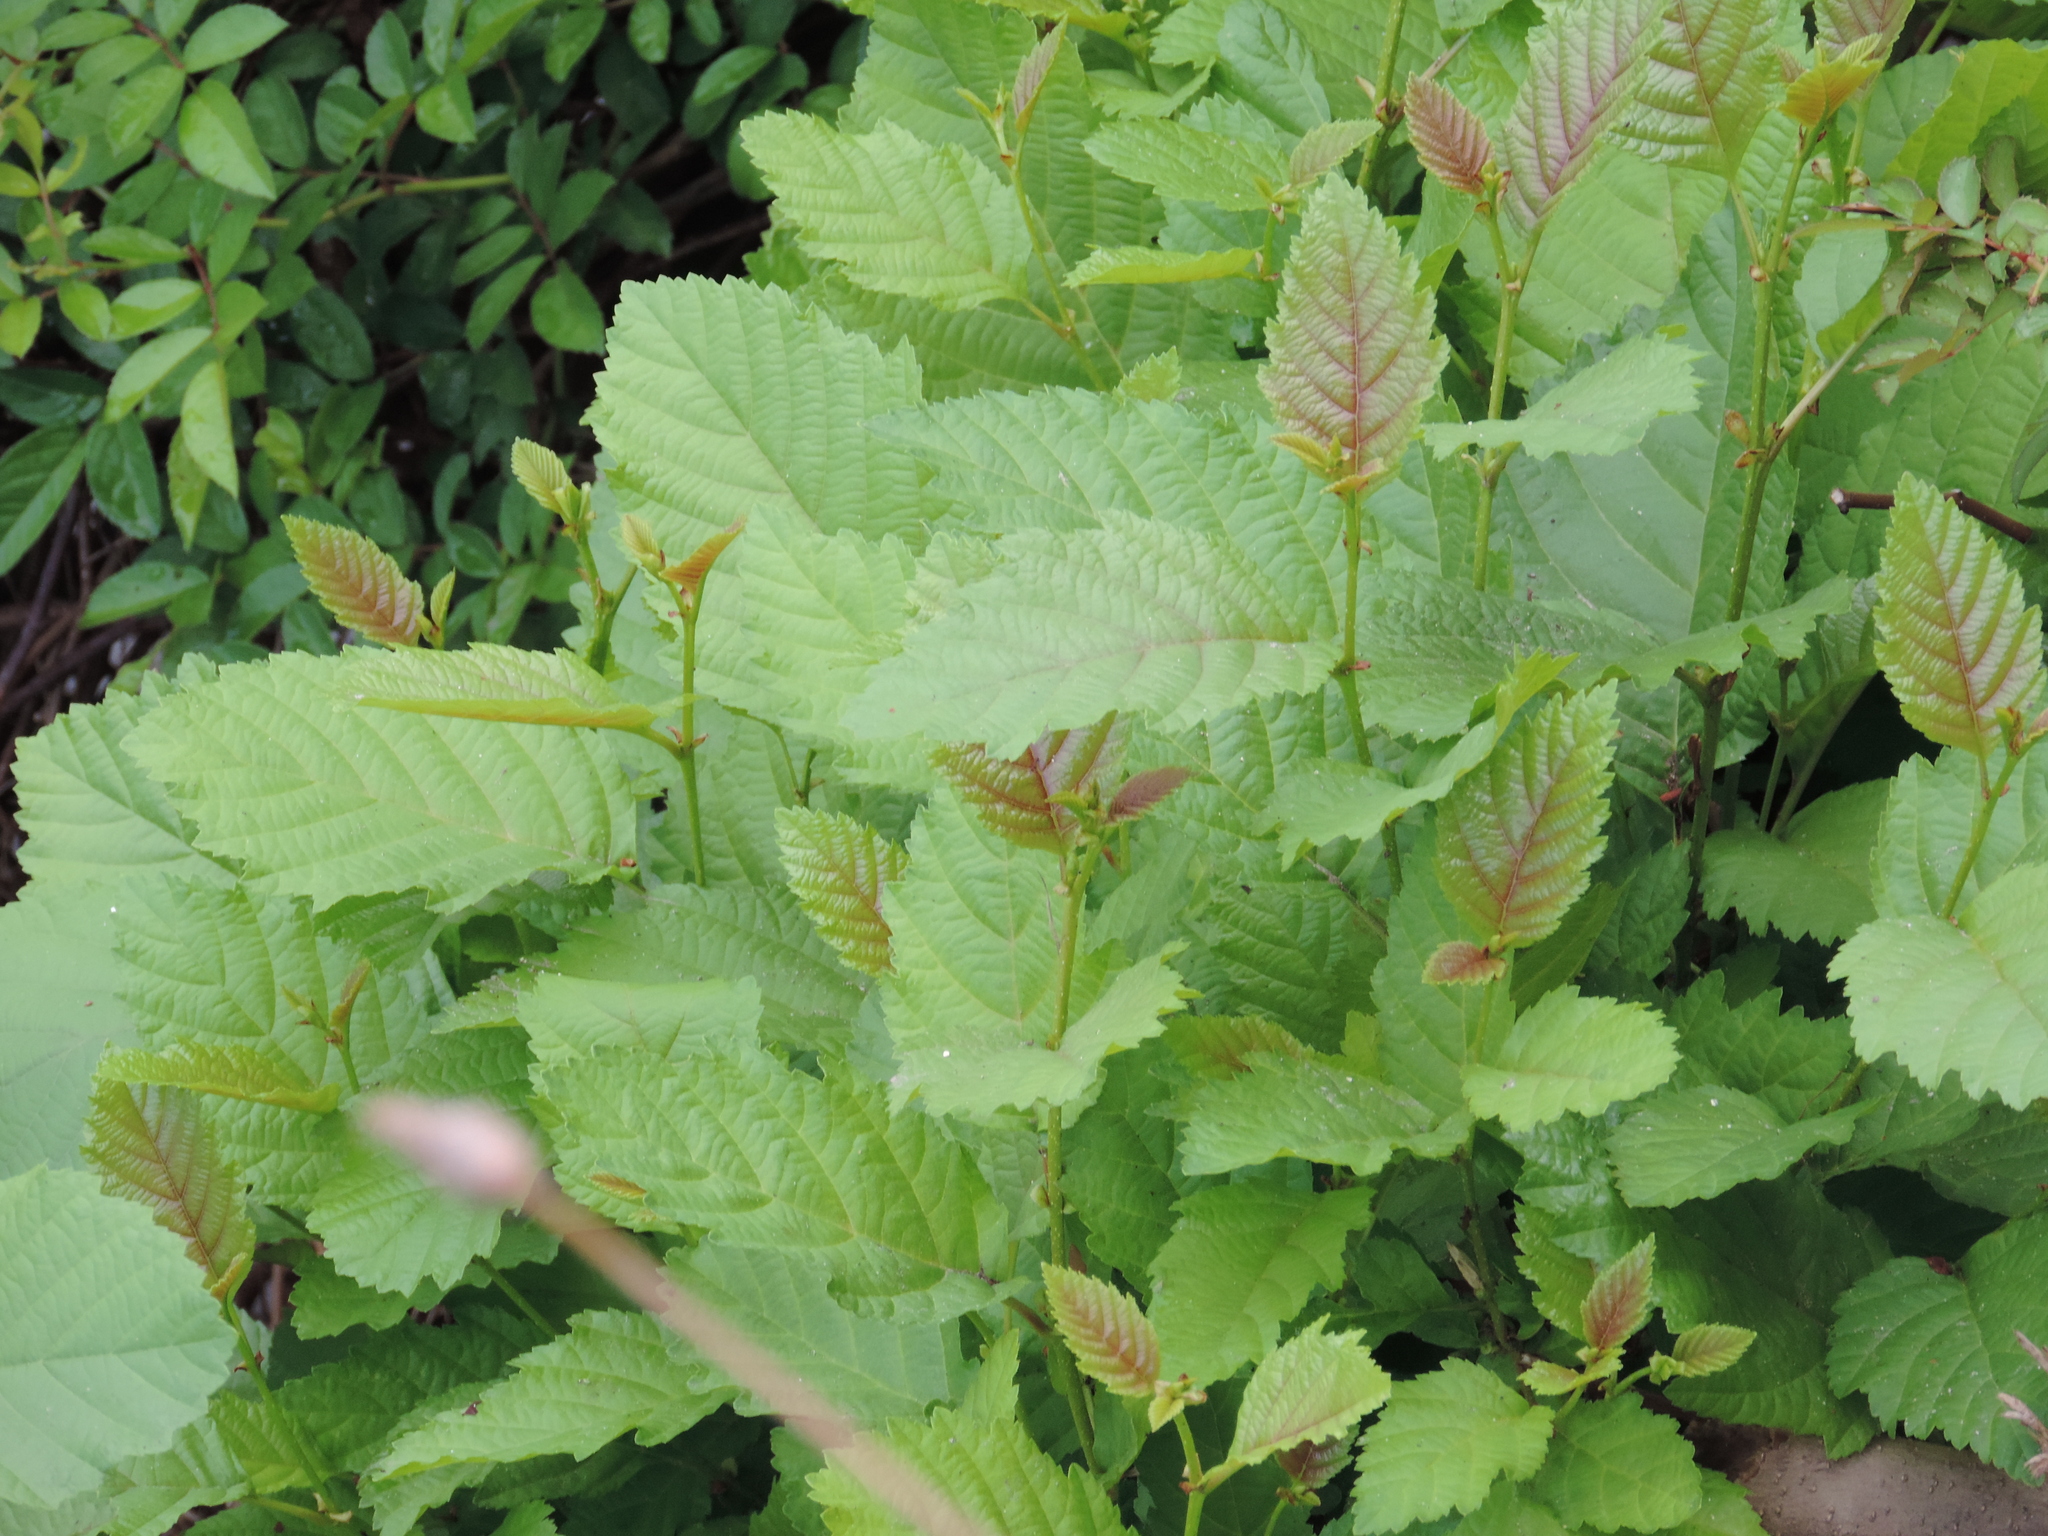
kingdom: Plantae
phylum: Tracheophyta
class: Magnoliopsida
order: Fagales
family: Betulaceae
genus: Alnus
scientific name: Alnus glutinosa
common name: Black alder
